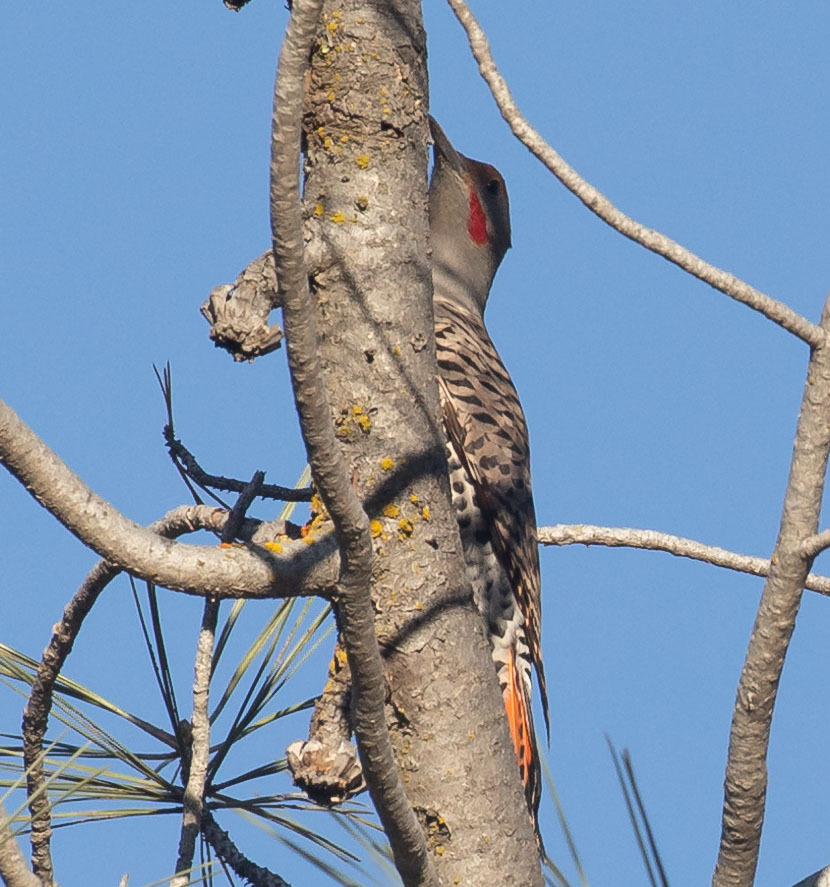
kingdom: Animalia
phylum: Chordata
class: Aves
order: Piciformes
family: Picidae
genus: Colaptes
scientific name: Colaptes auratus
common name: Northern flicker
